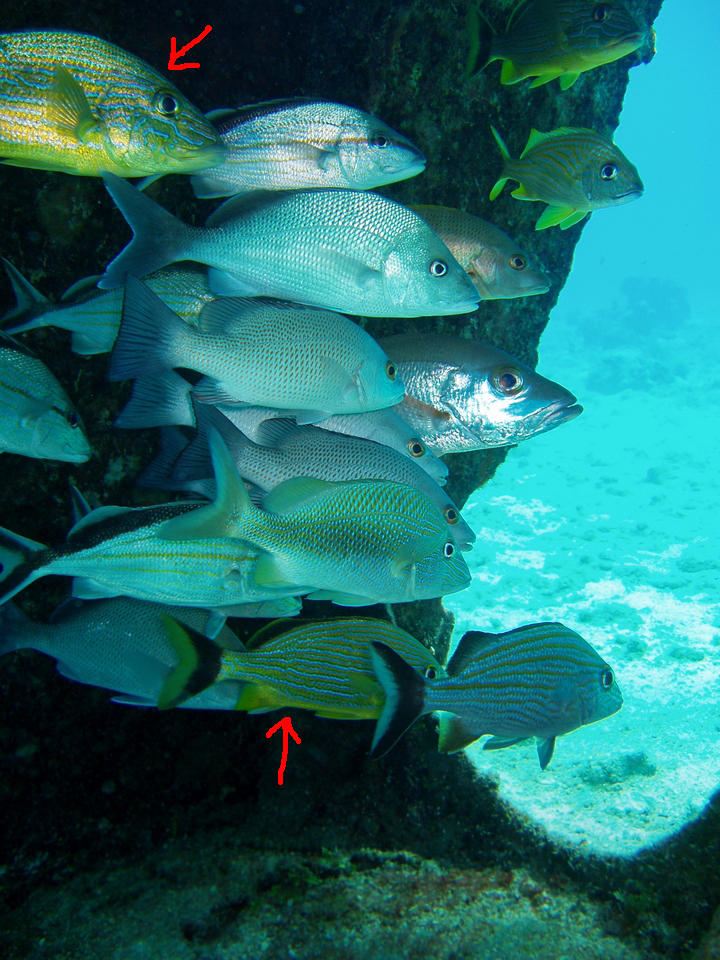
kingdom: Animalia
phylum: Chordata
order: Perciformes
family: Haemulidae
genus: Haemulon
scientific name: Haemulon sciurus
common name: Bluestriped grunt
